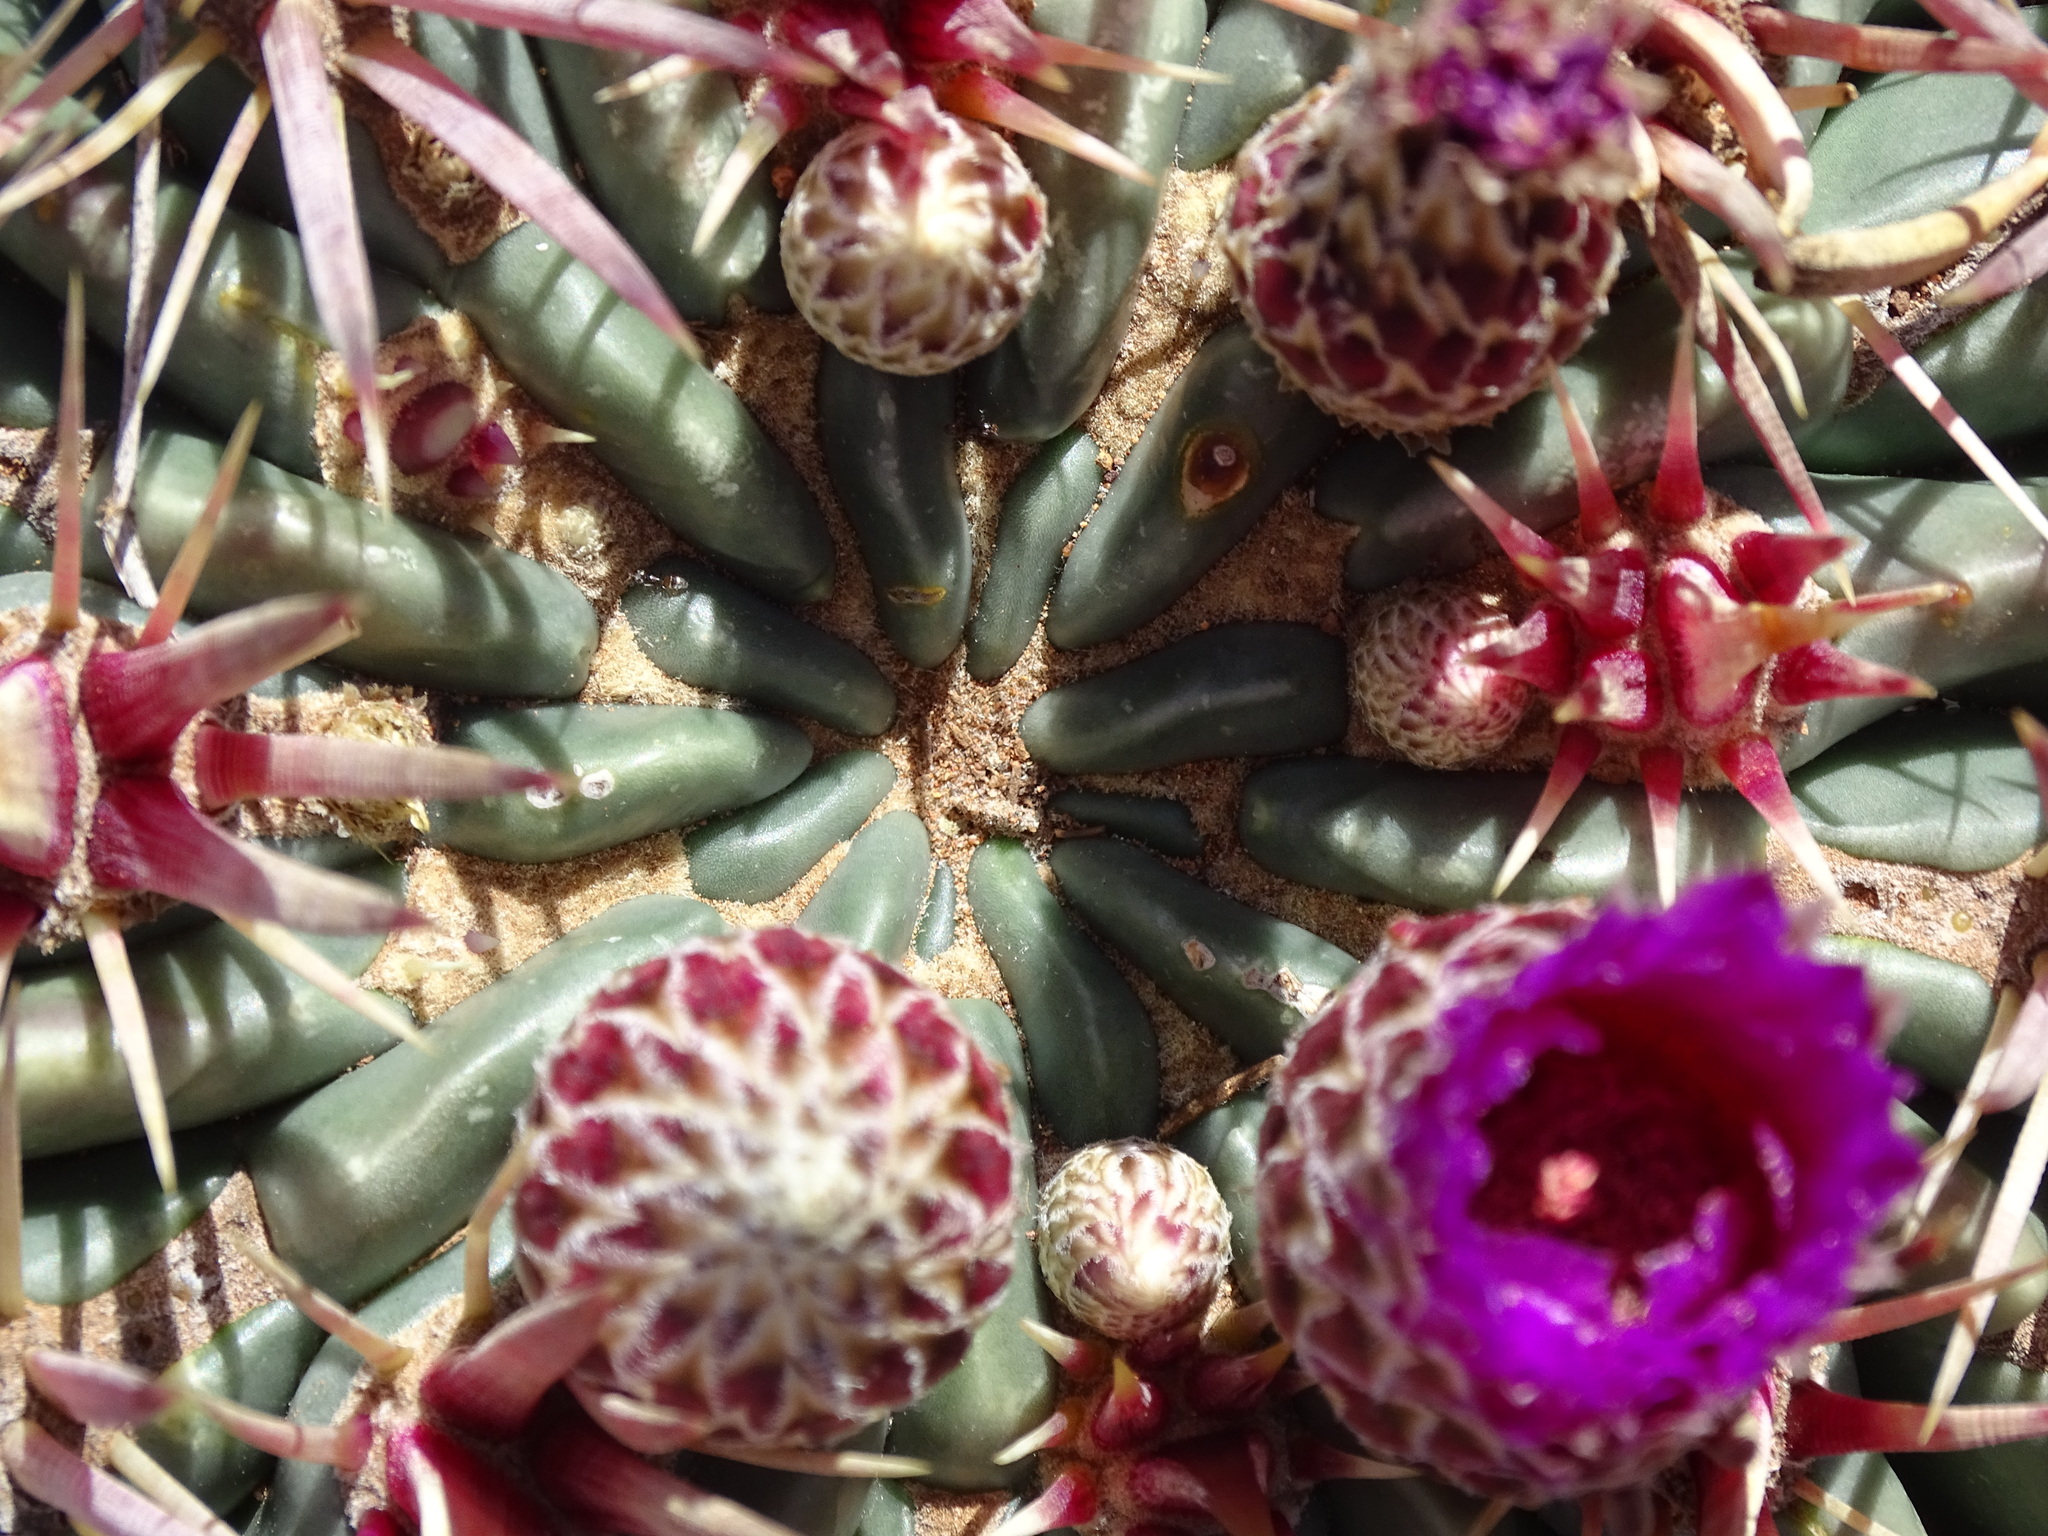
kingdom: Plantae
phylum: Tracheophyta
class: Magnoliopsida
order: Caryophyllales
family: Cactaceae
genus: Ferocactus
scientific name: Ferocactus latispinus
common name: Devil's-tongue cactus
